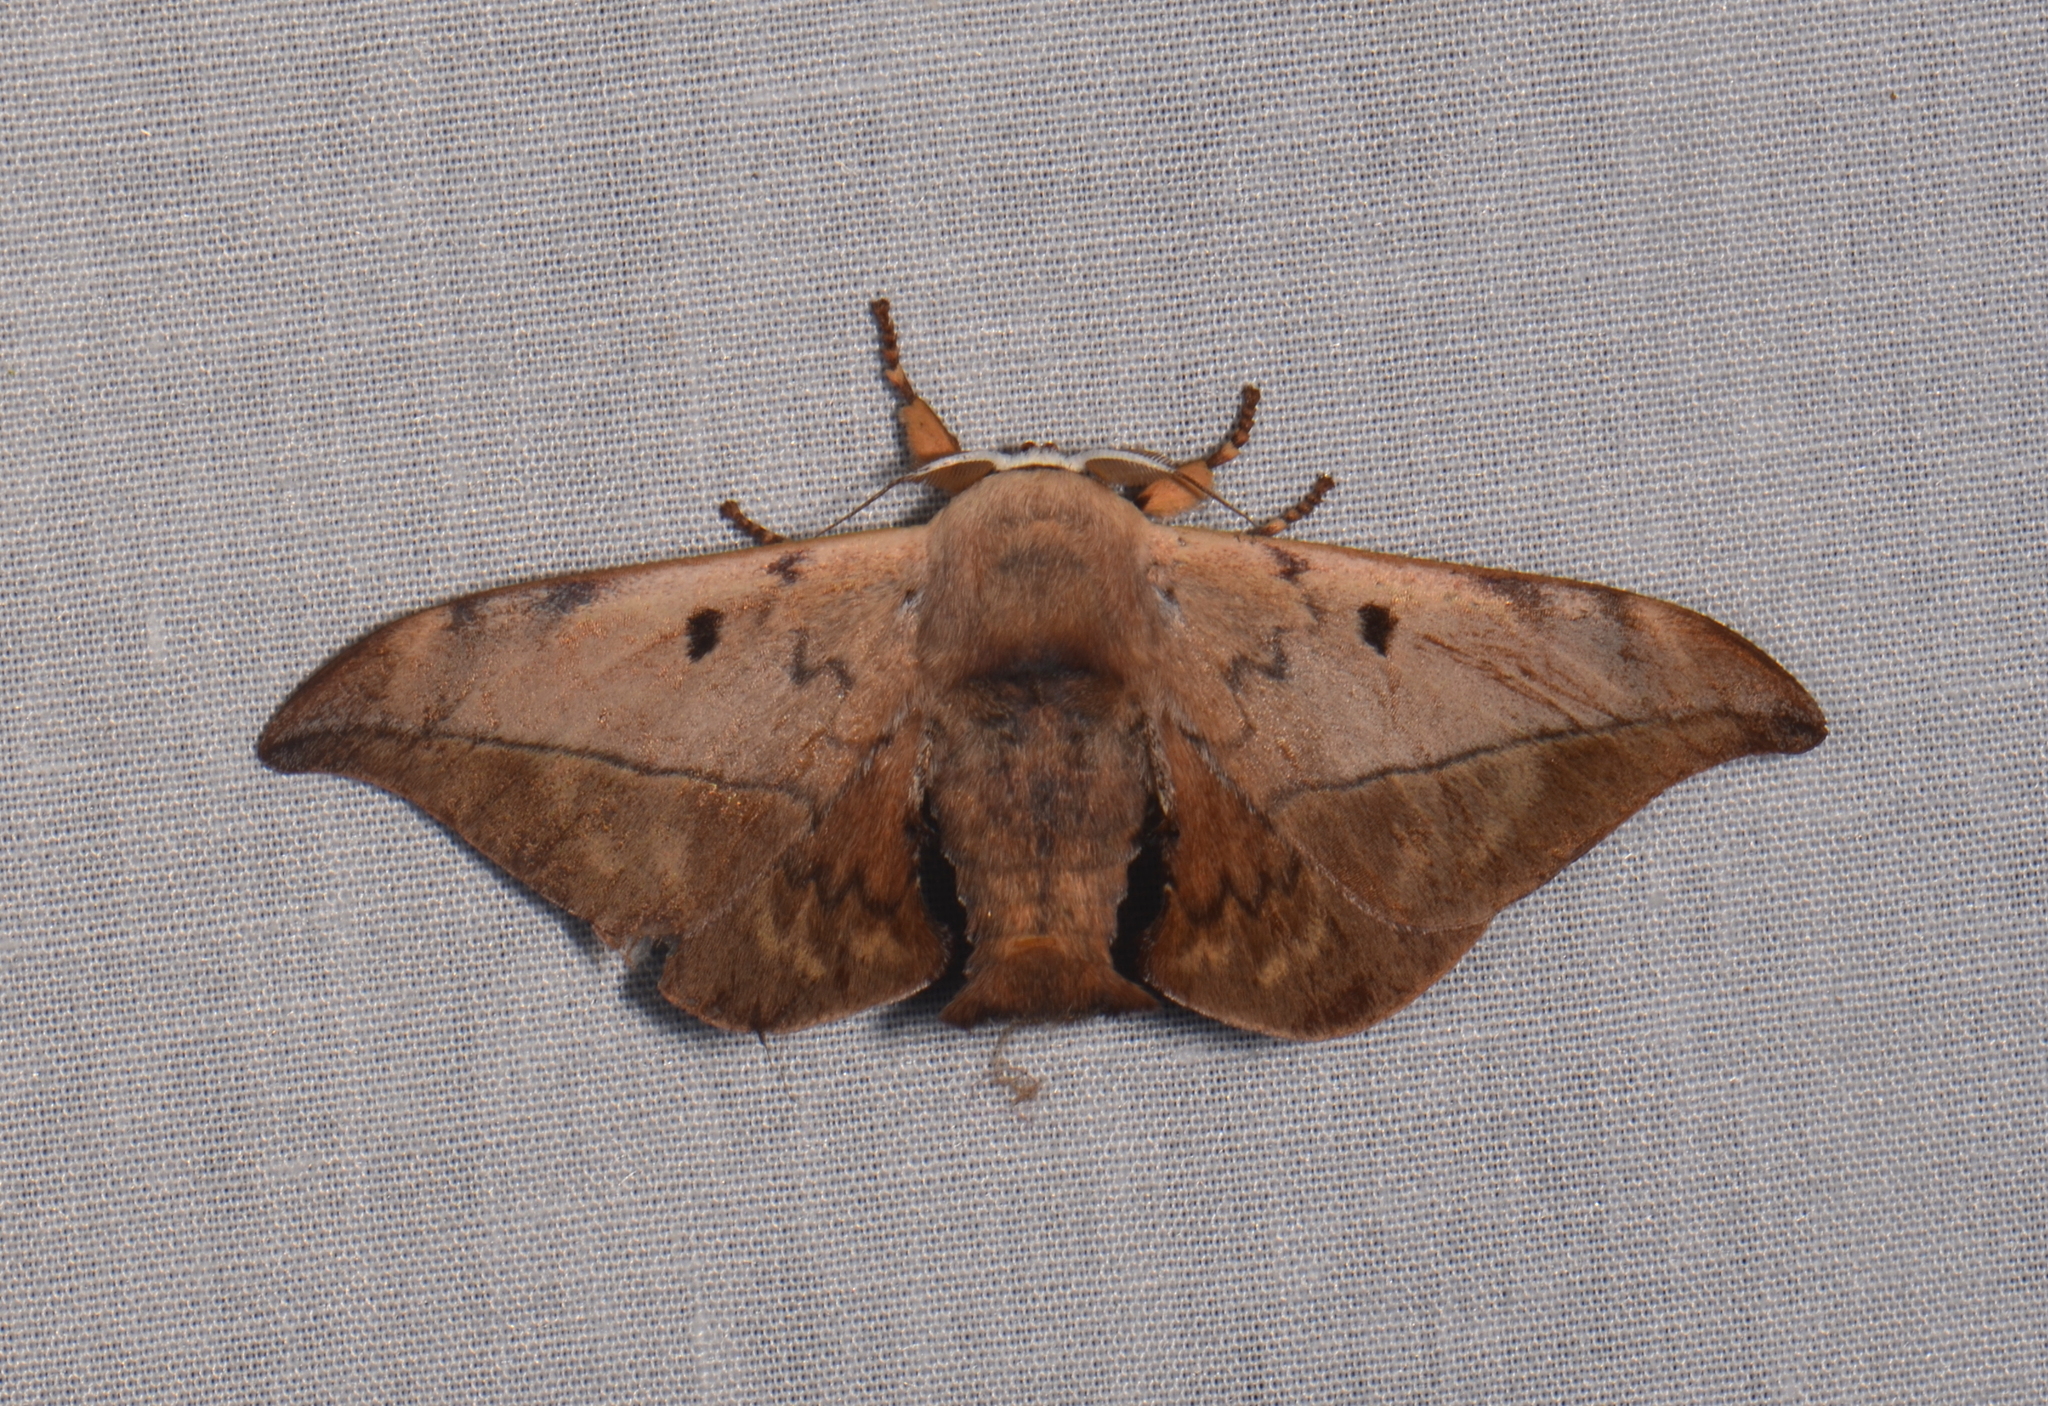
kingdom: Animalia
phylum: Arthropoda
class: Insecta
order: Lepidoptera
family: Endromidae
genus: Mustilizans
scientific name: Mustilizans dierli
